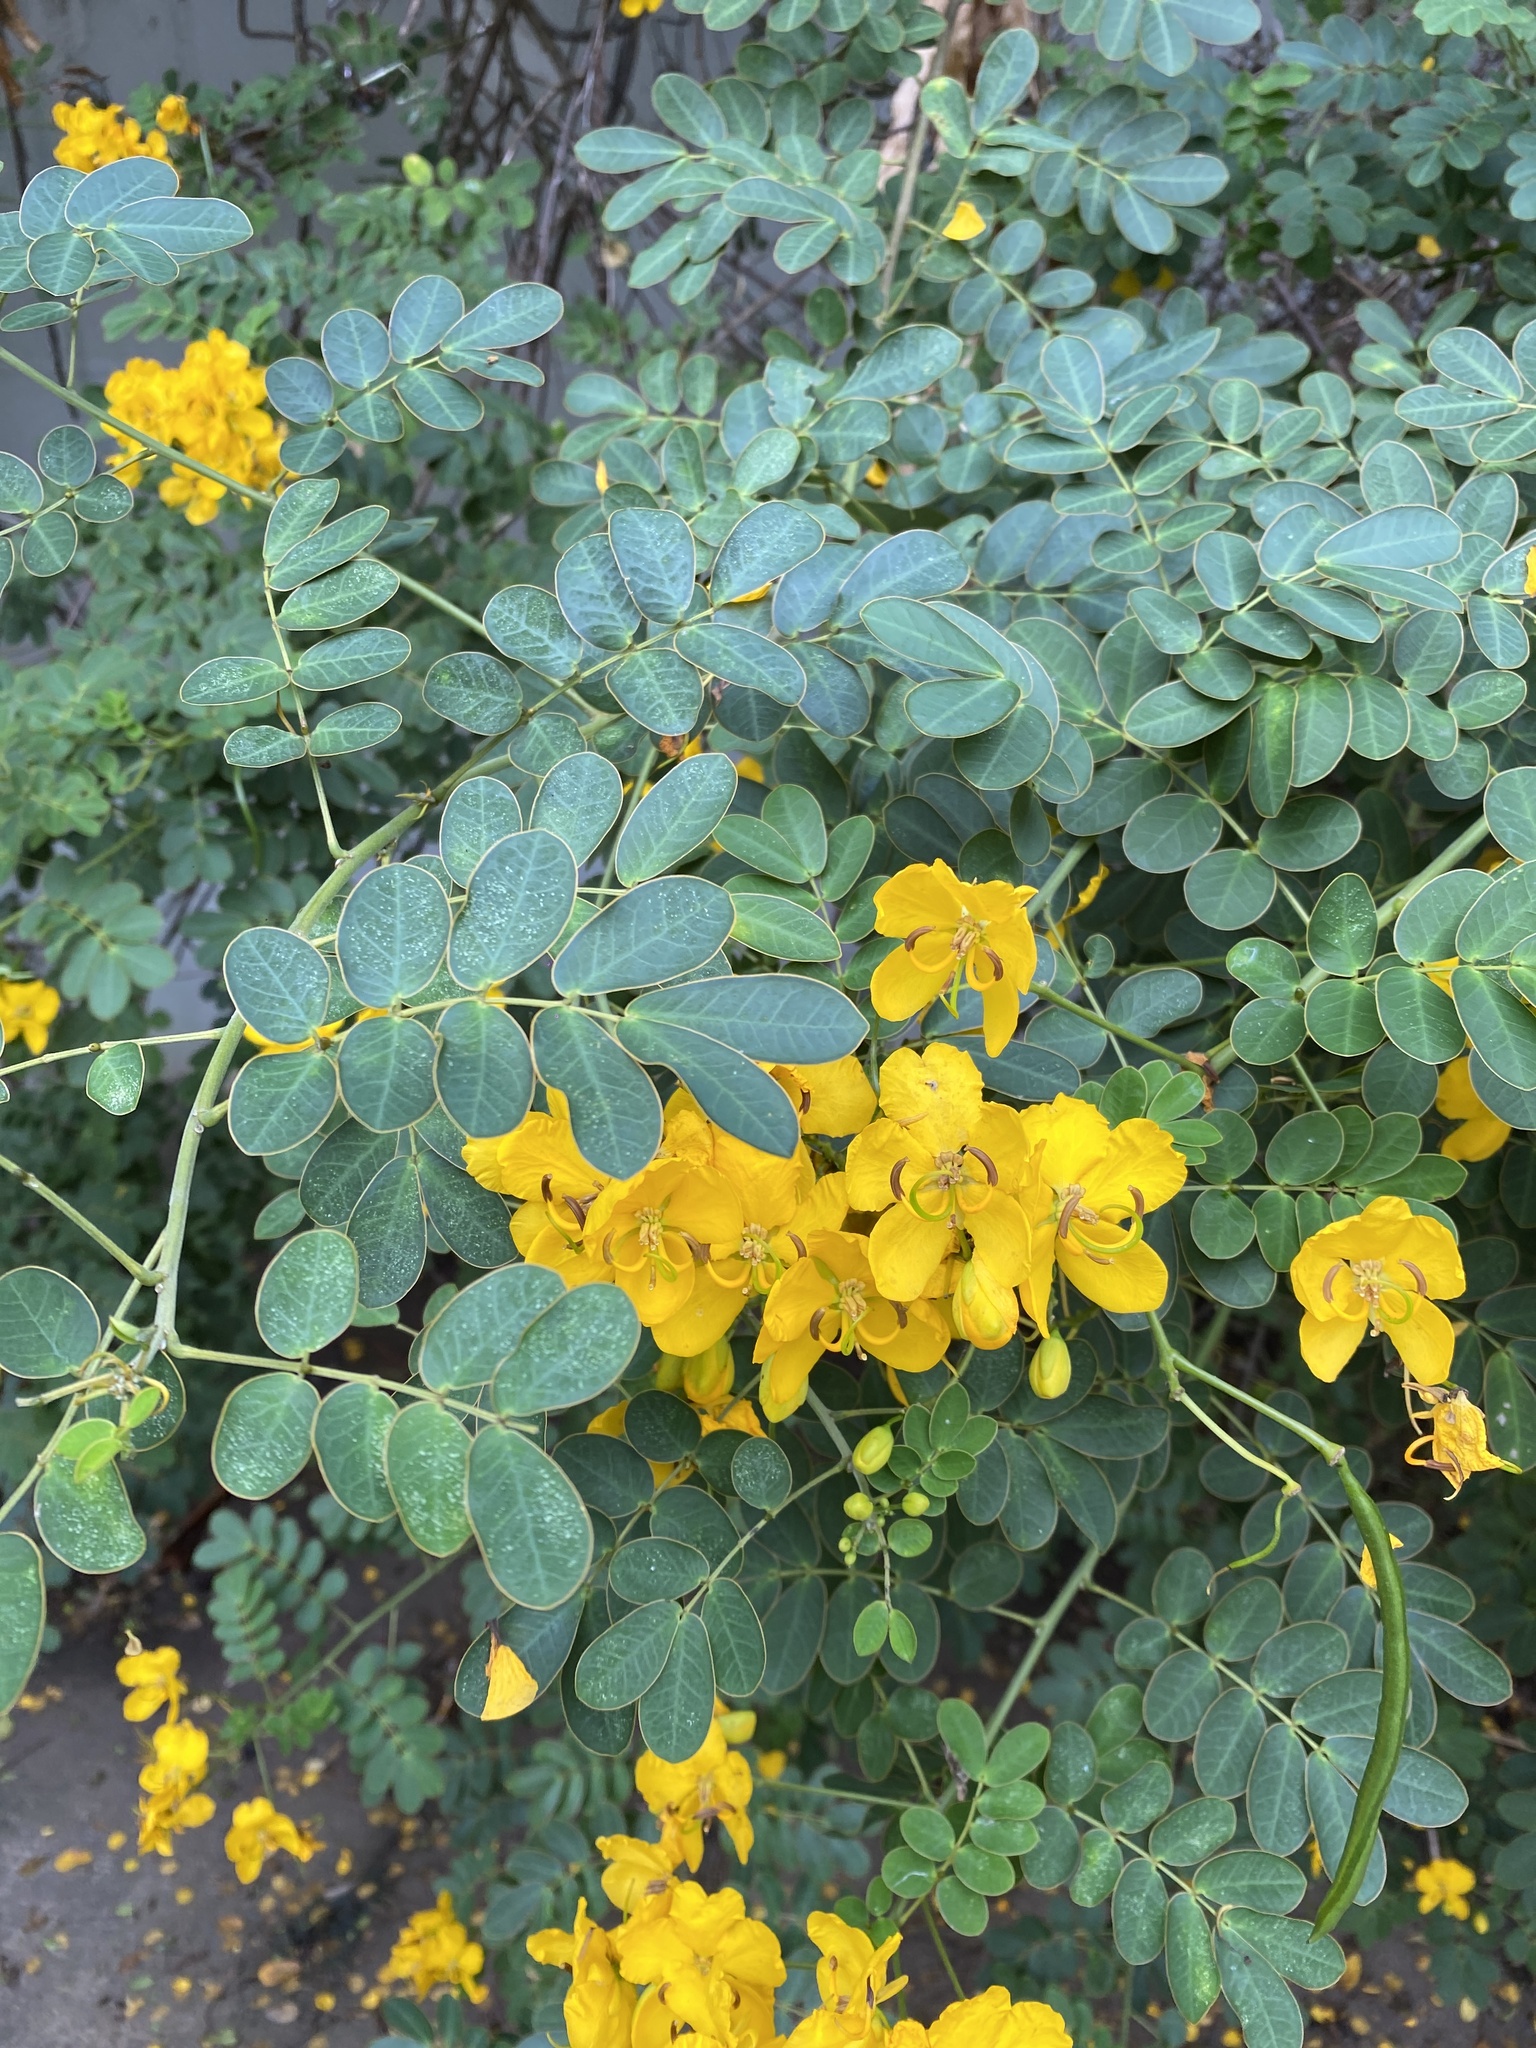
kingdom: Plantae
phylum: Tracheophyta
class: Magnoliopsida
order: Fabales
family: Fabaceae
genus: Senna
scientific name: Senna pendula
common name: Easter cassia
